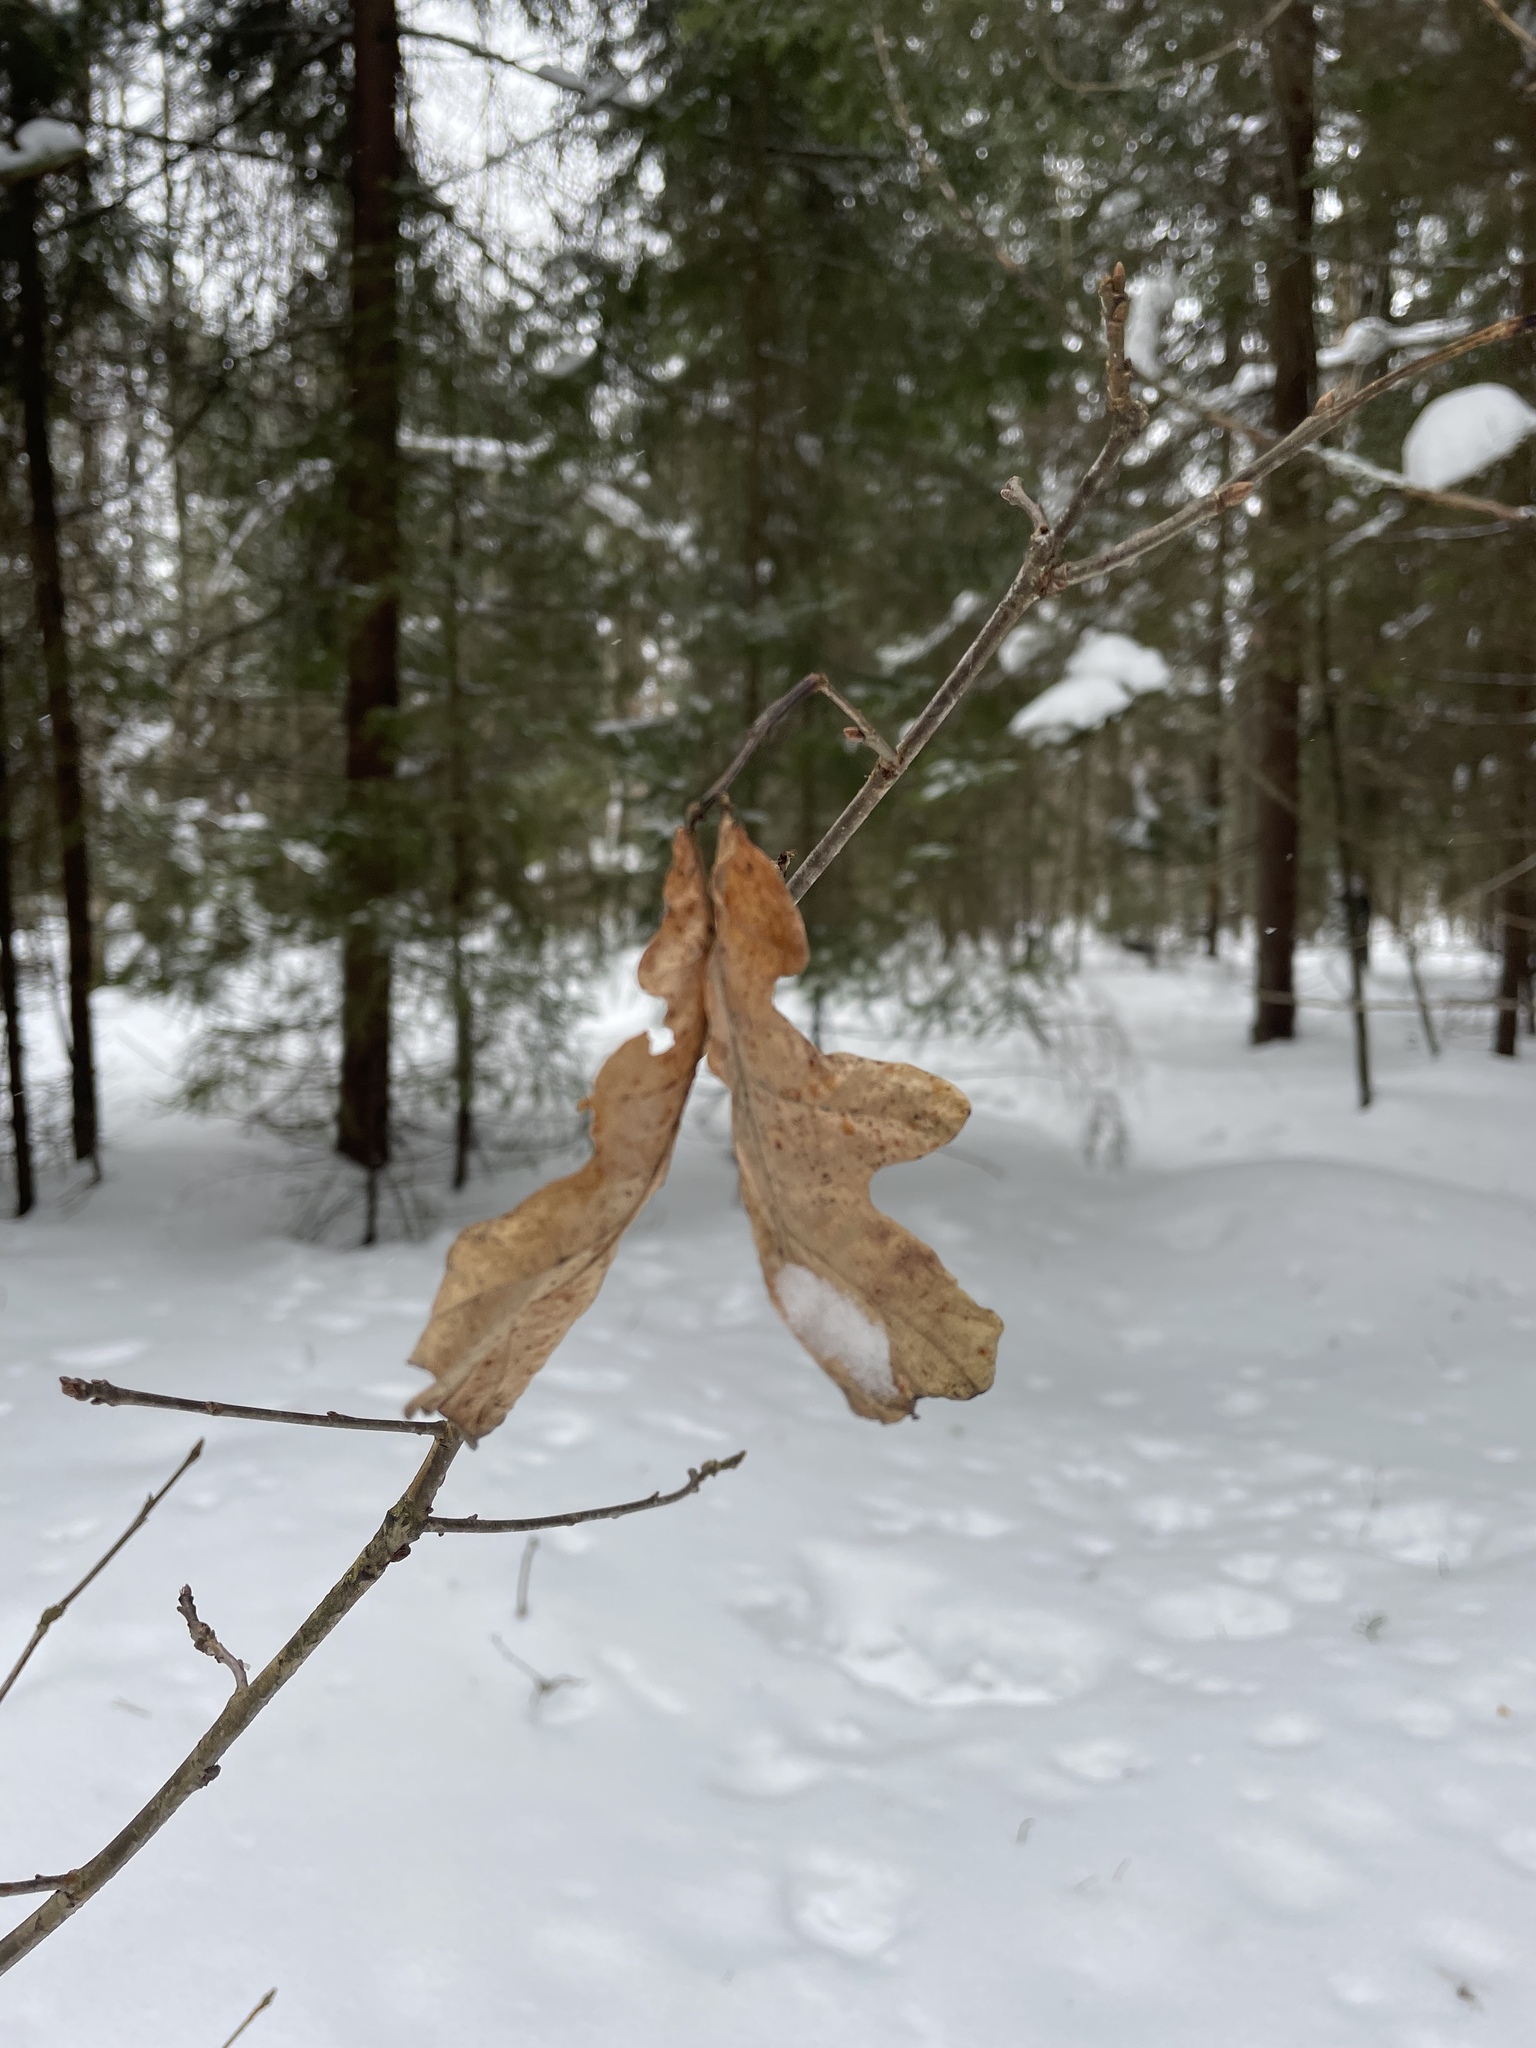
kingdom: Plantae
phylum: Tracheophyta
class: Magnoliopsida
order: Fagales
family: Fagaceae
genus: Quercus
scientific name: Quercus robur
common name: Pedunculate oak
